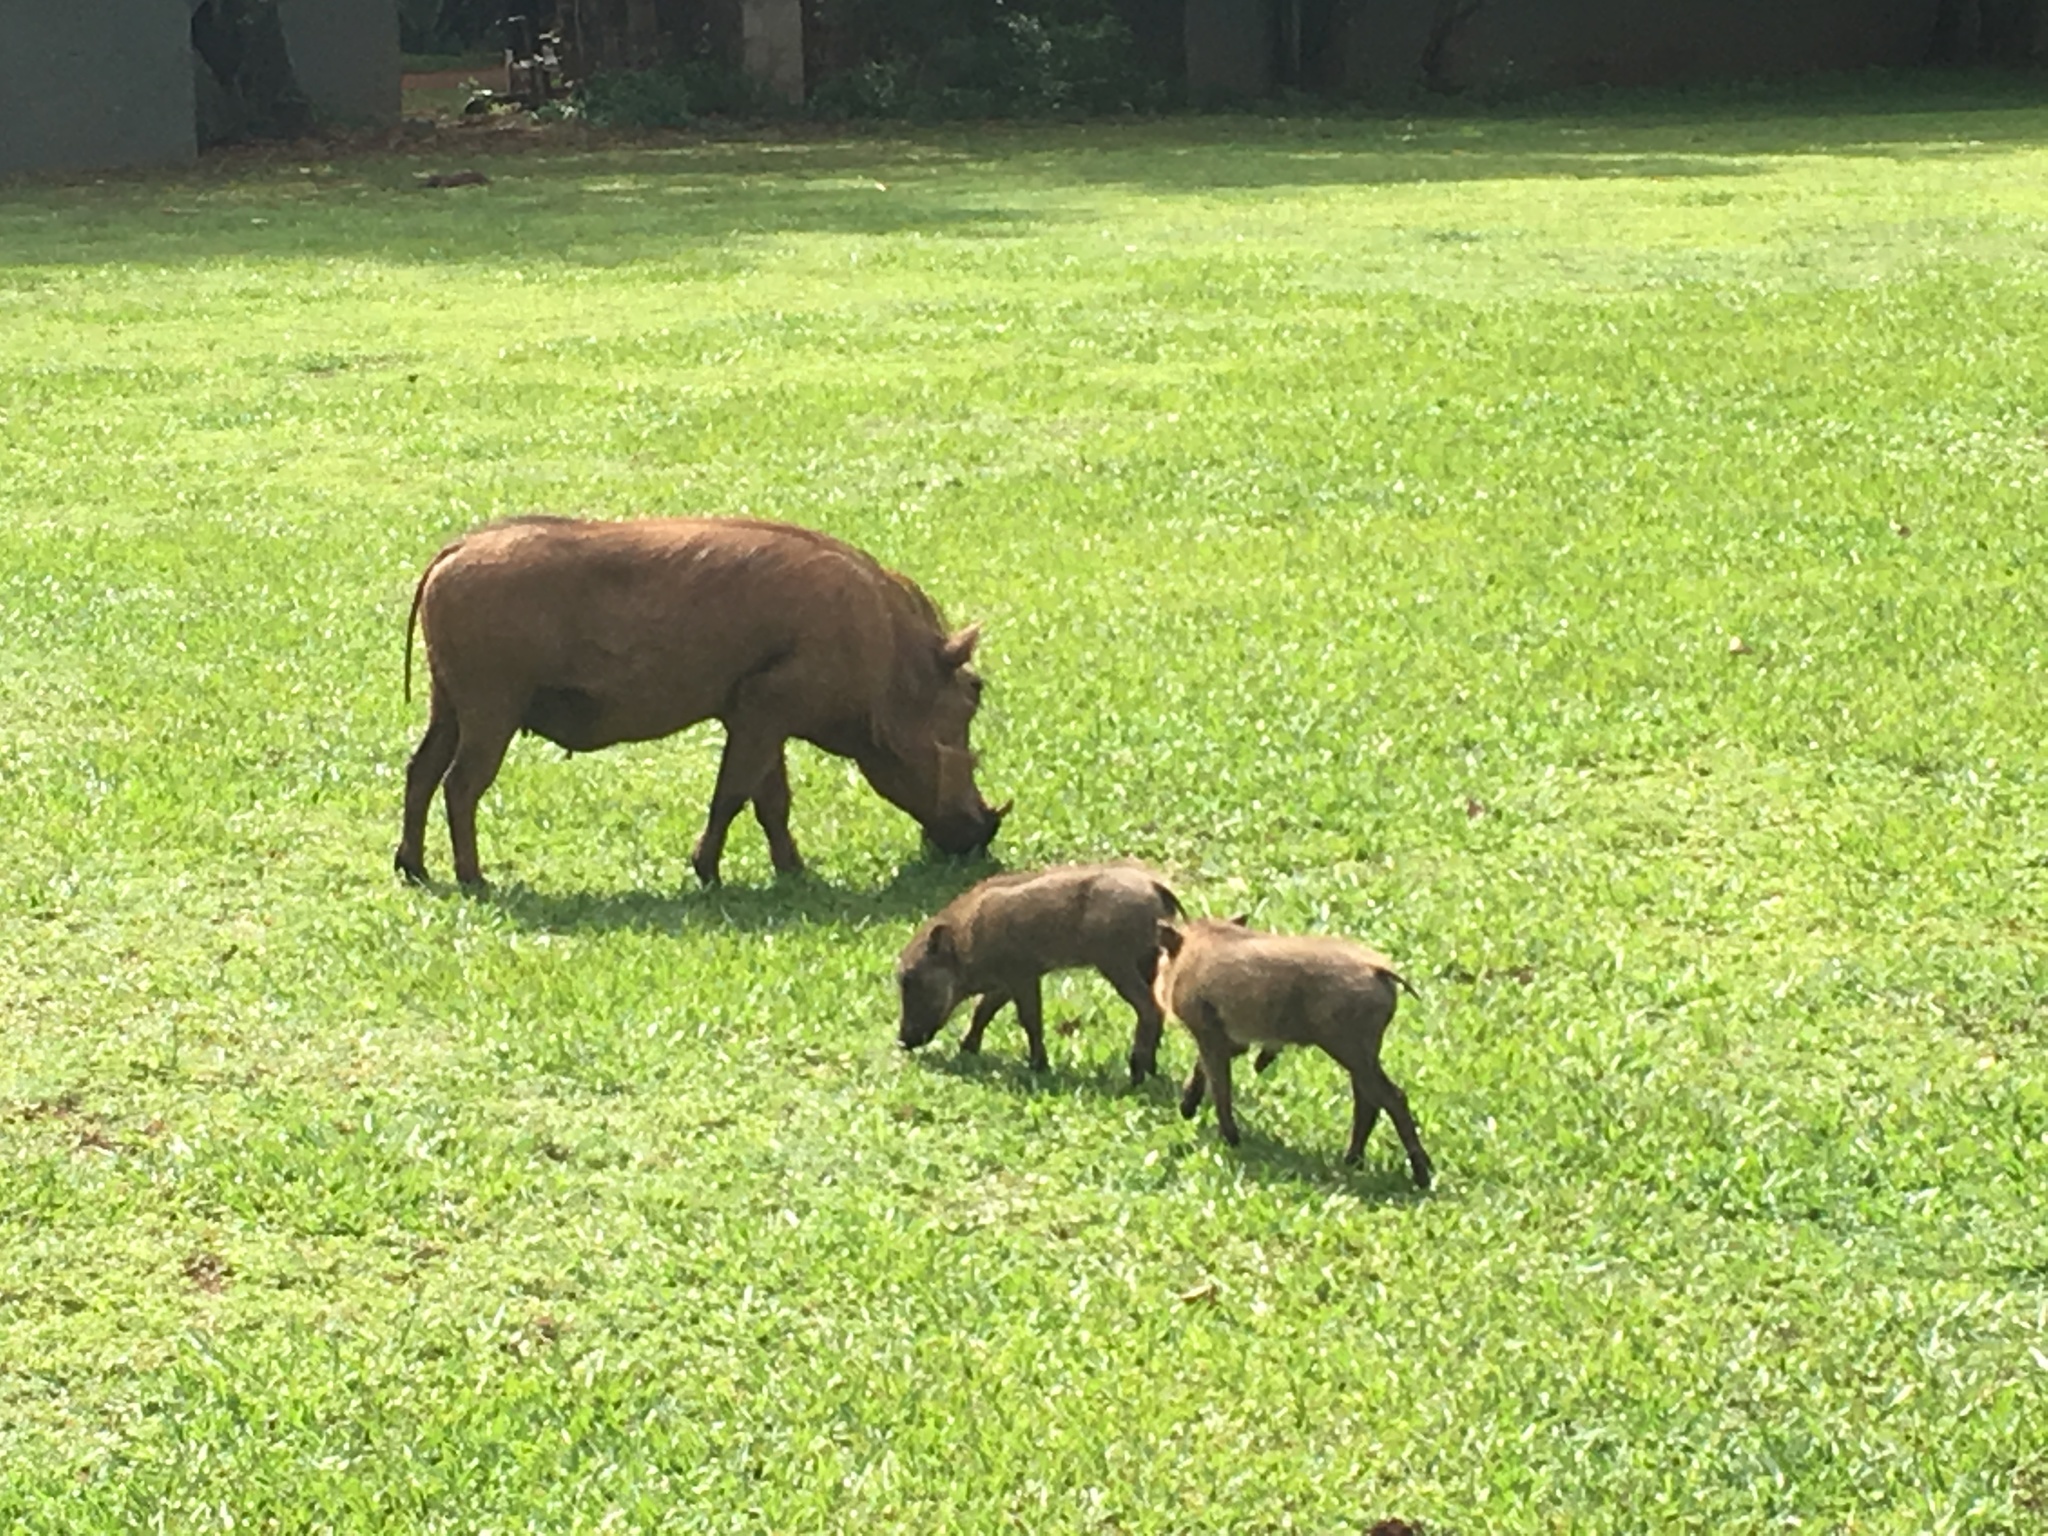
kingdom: Animalia
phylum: Chordata
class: Mammalia
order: Artiodactyla
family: Suidae
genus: Phacochoerus
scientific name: Phacochoerus africanus
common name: Common warthog
